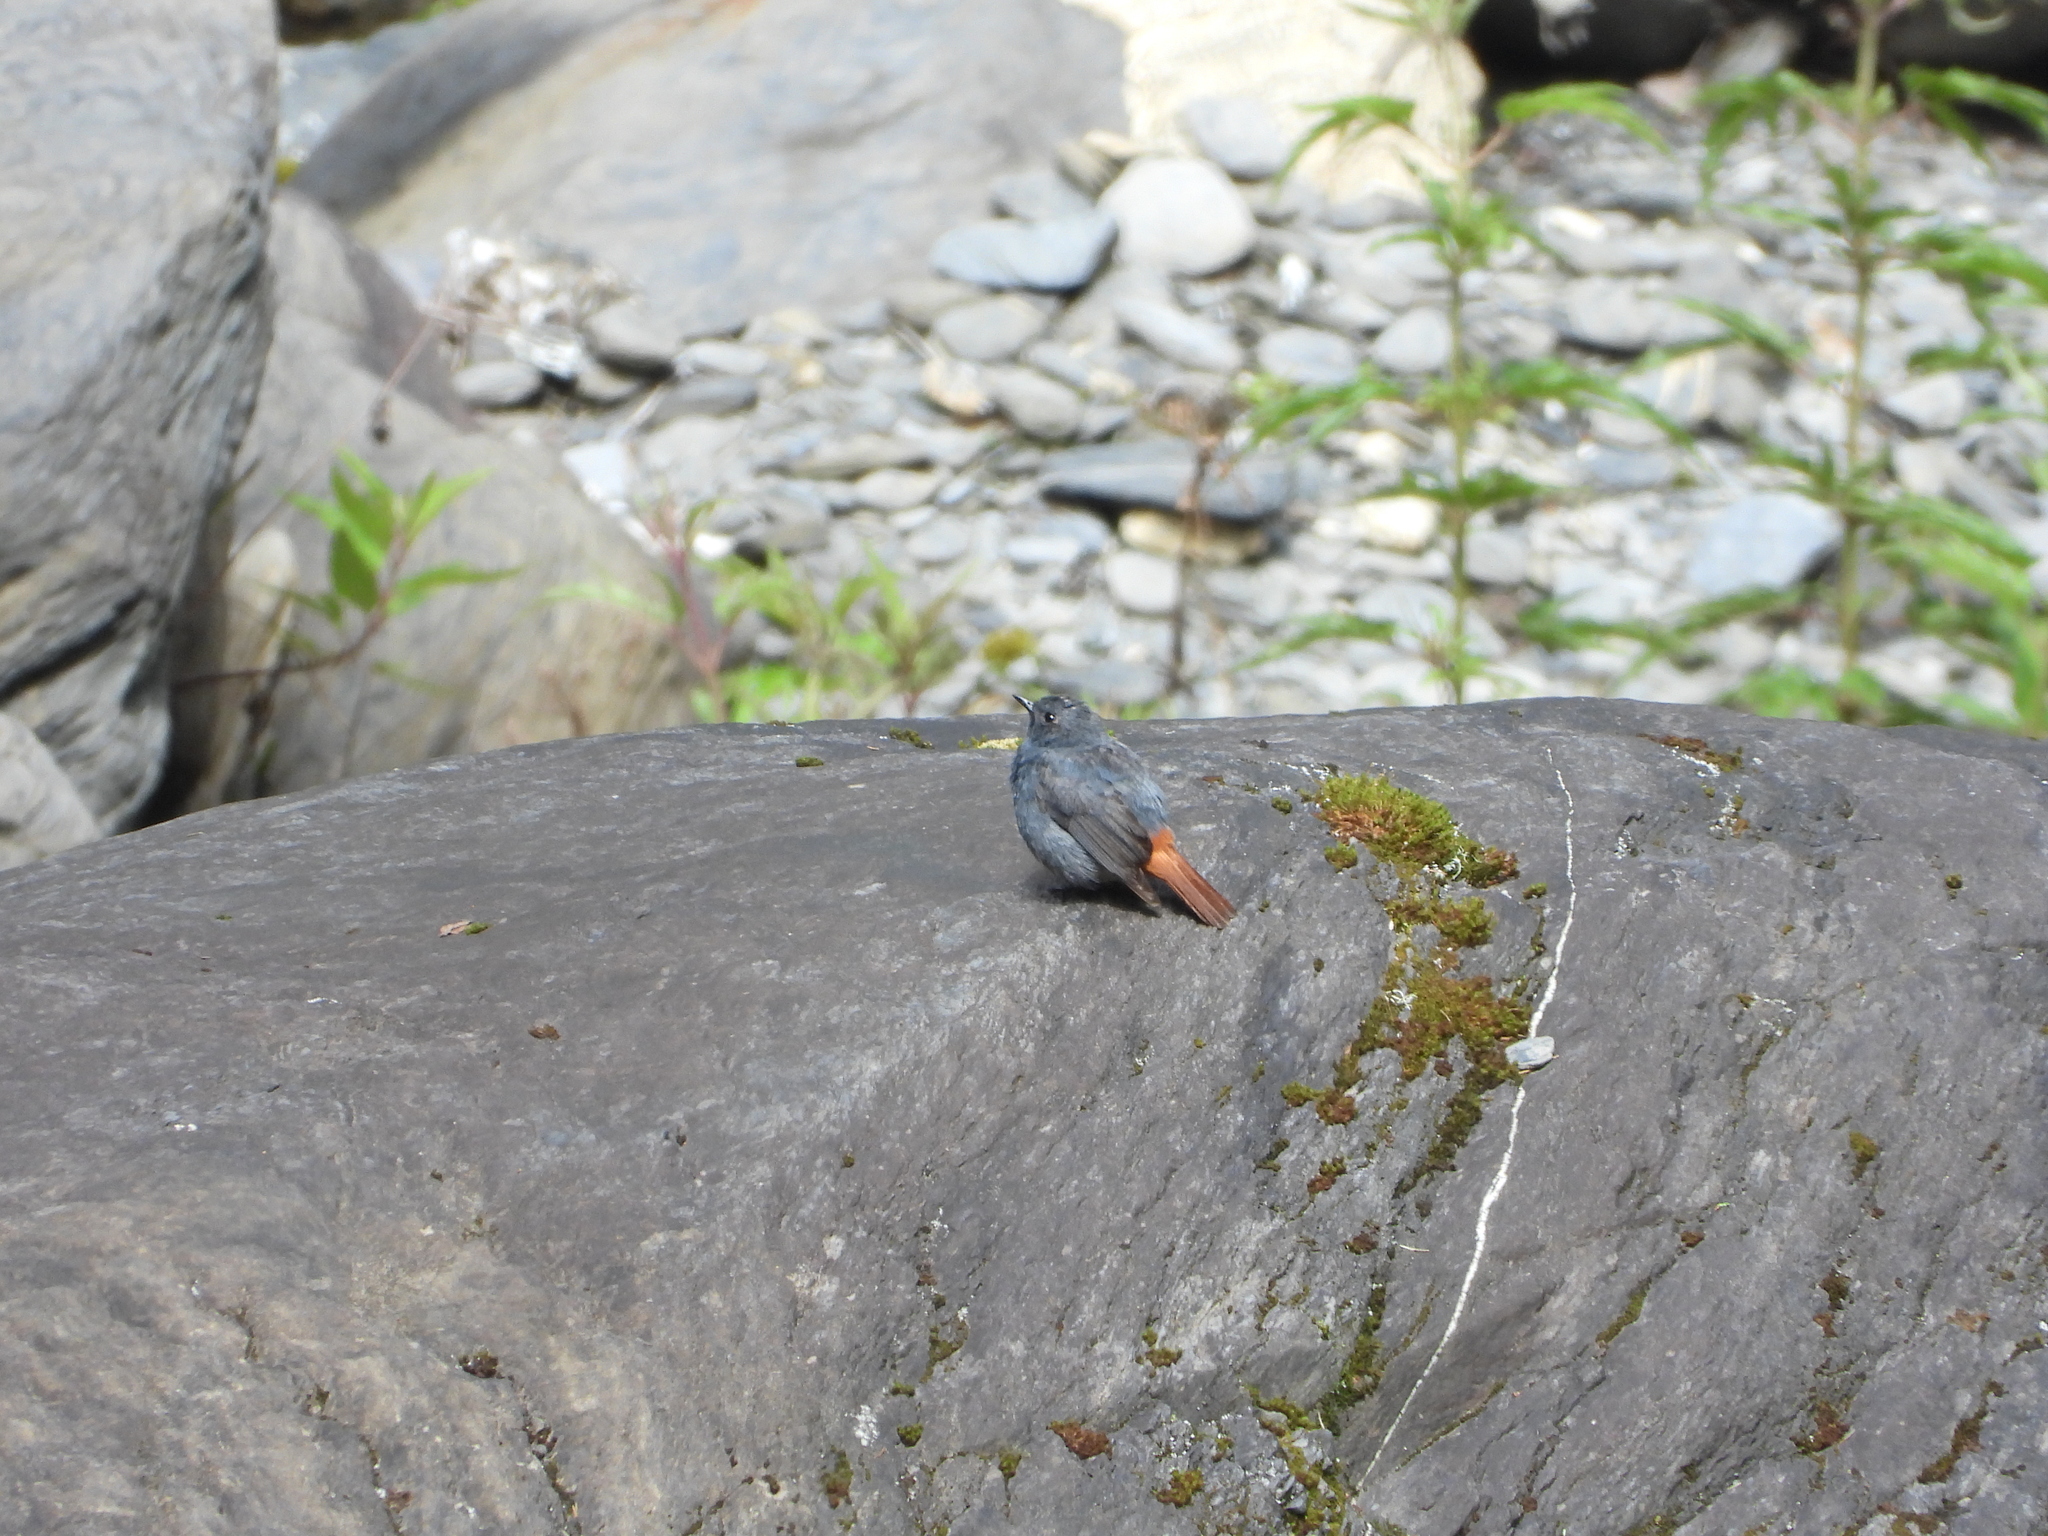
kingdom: Animalia
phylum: Chordata
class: Aves
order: Passeriformes
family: Muscicapidae
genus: Phoenicurus
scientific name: Phoenicurus fuliginosus
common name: Plumbeous water redstart
